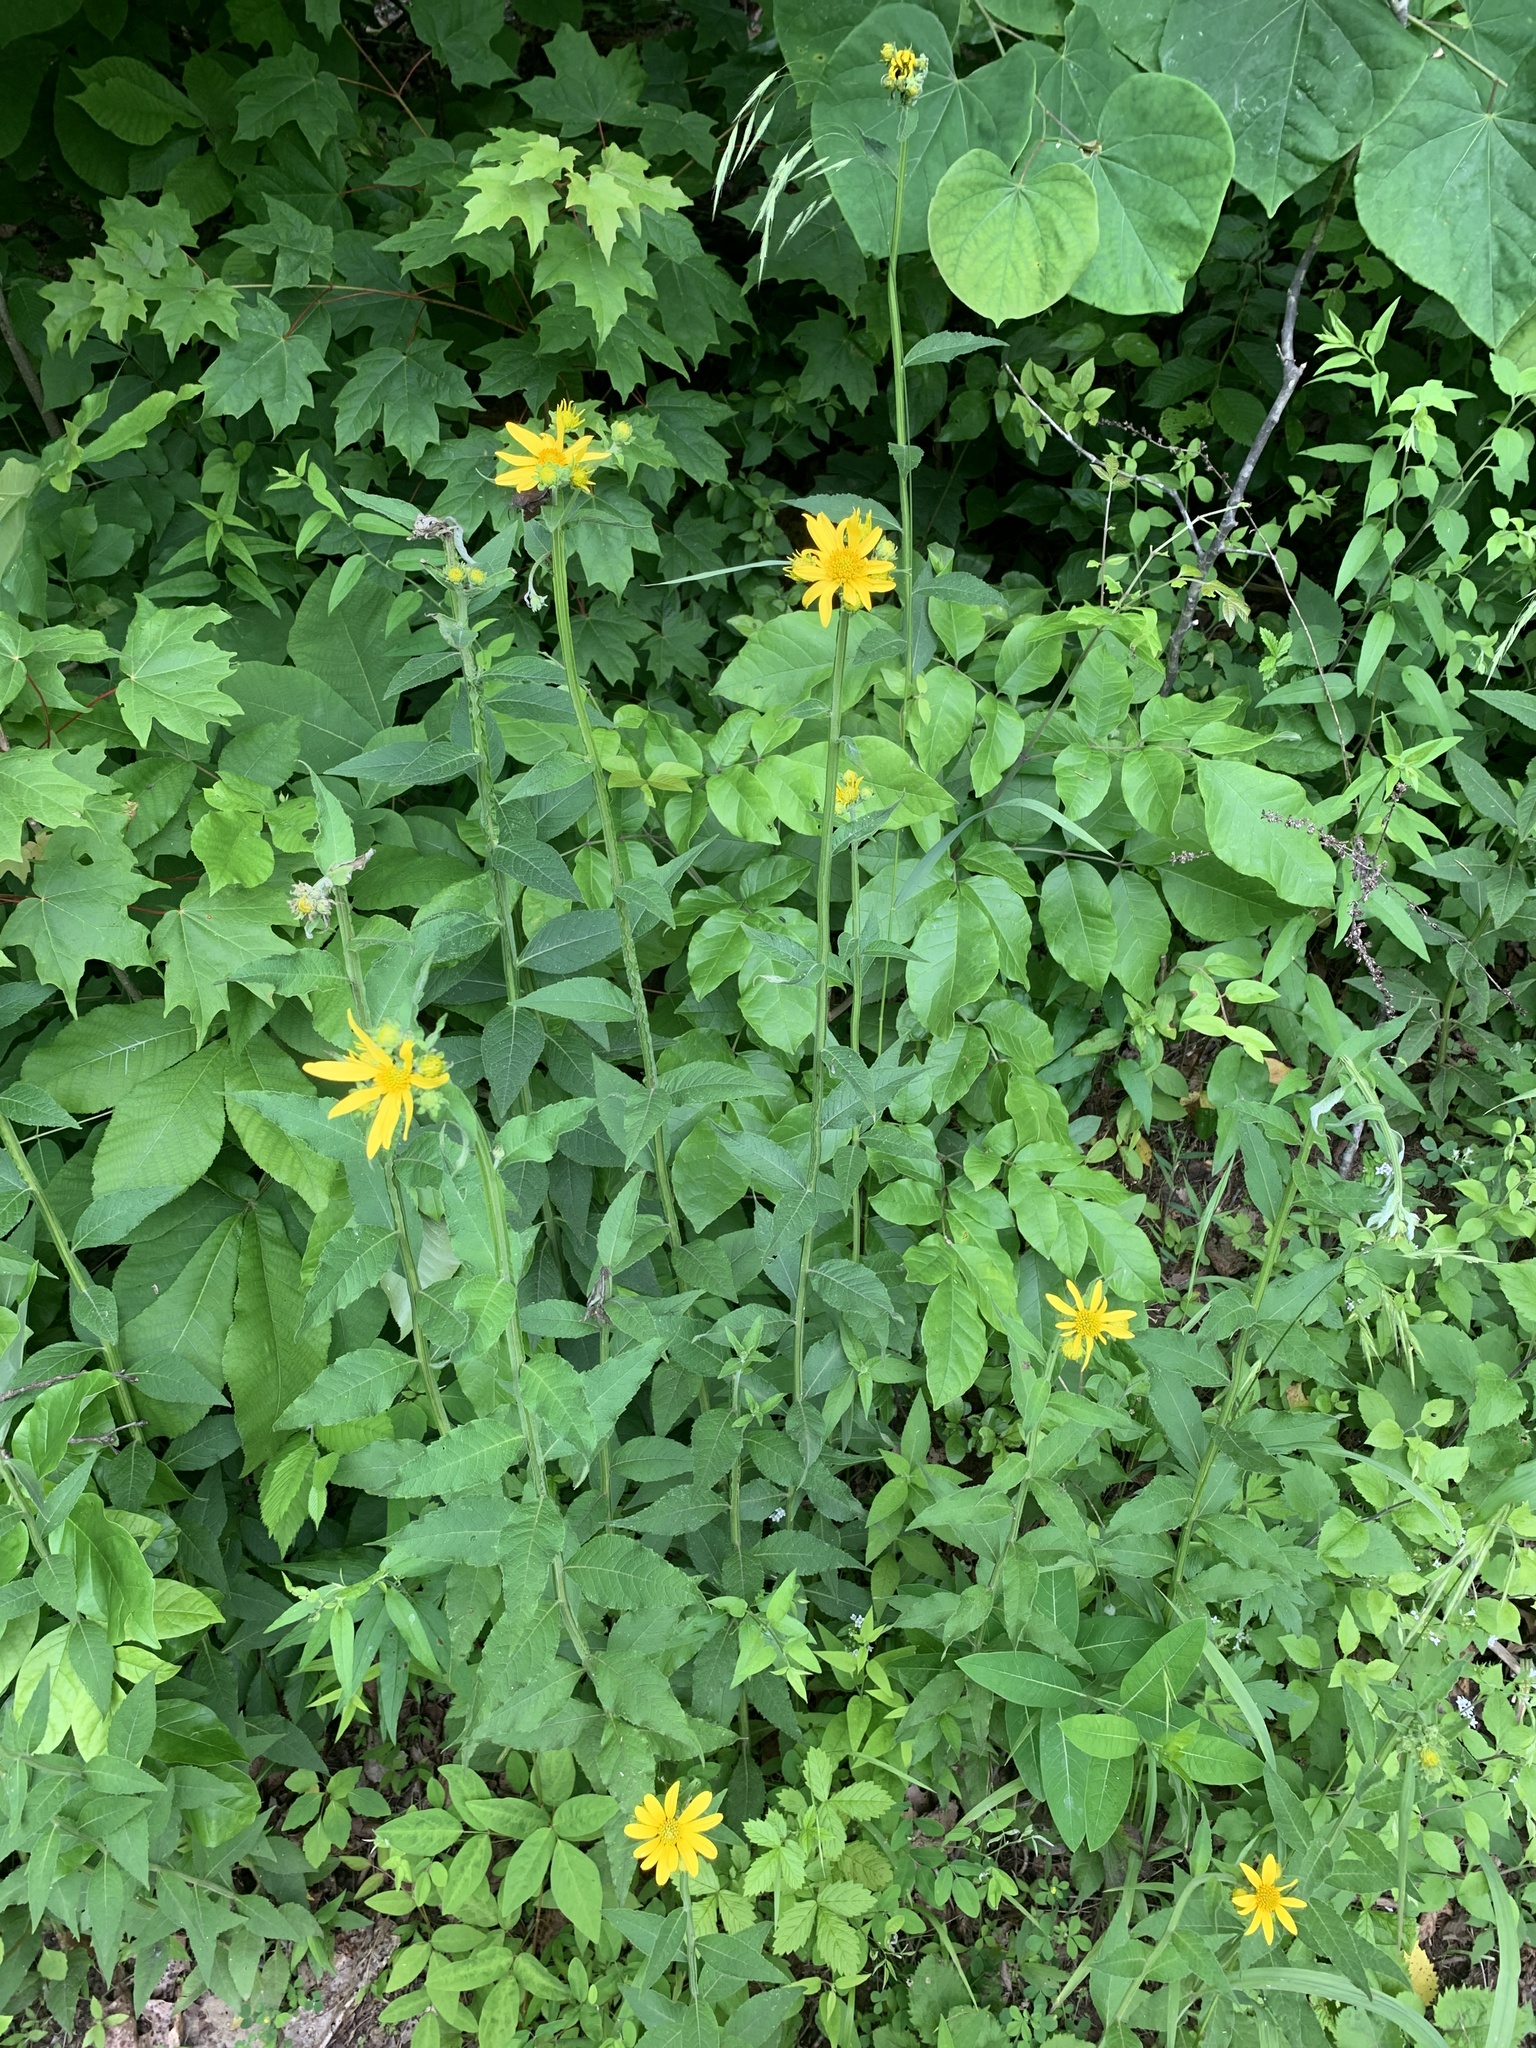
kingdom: Plantae
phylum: Tracheophyta
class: Magnoliopsida
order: Asterales
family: Asteraceae
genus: Verbesina
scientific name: Verbesina helianthoides
